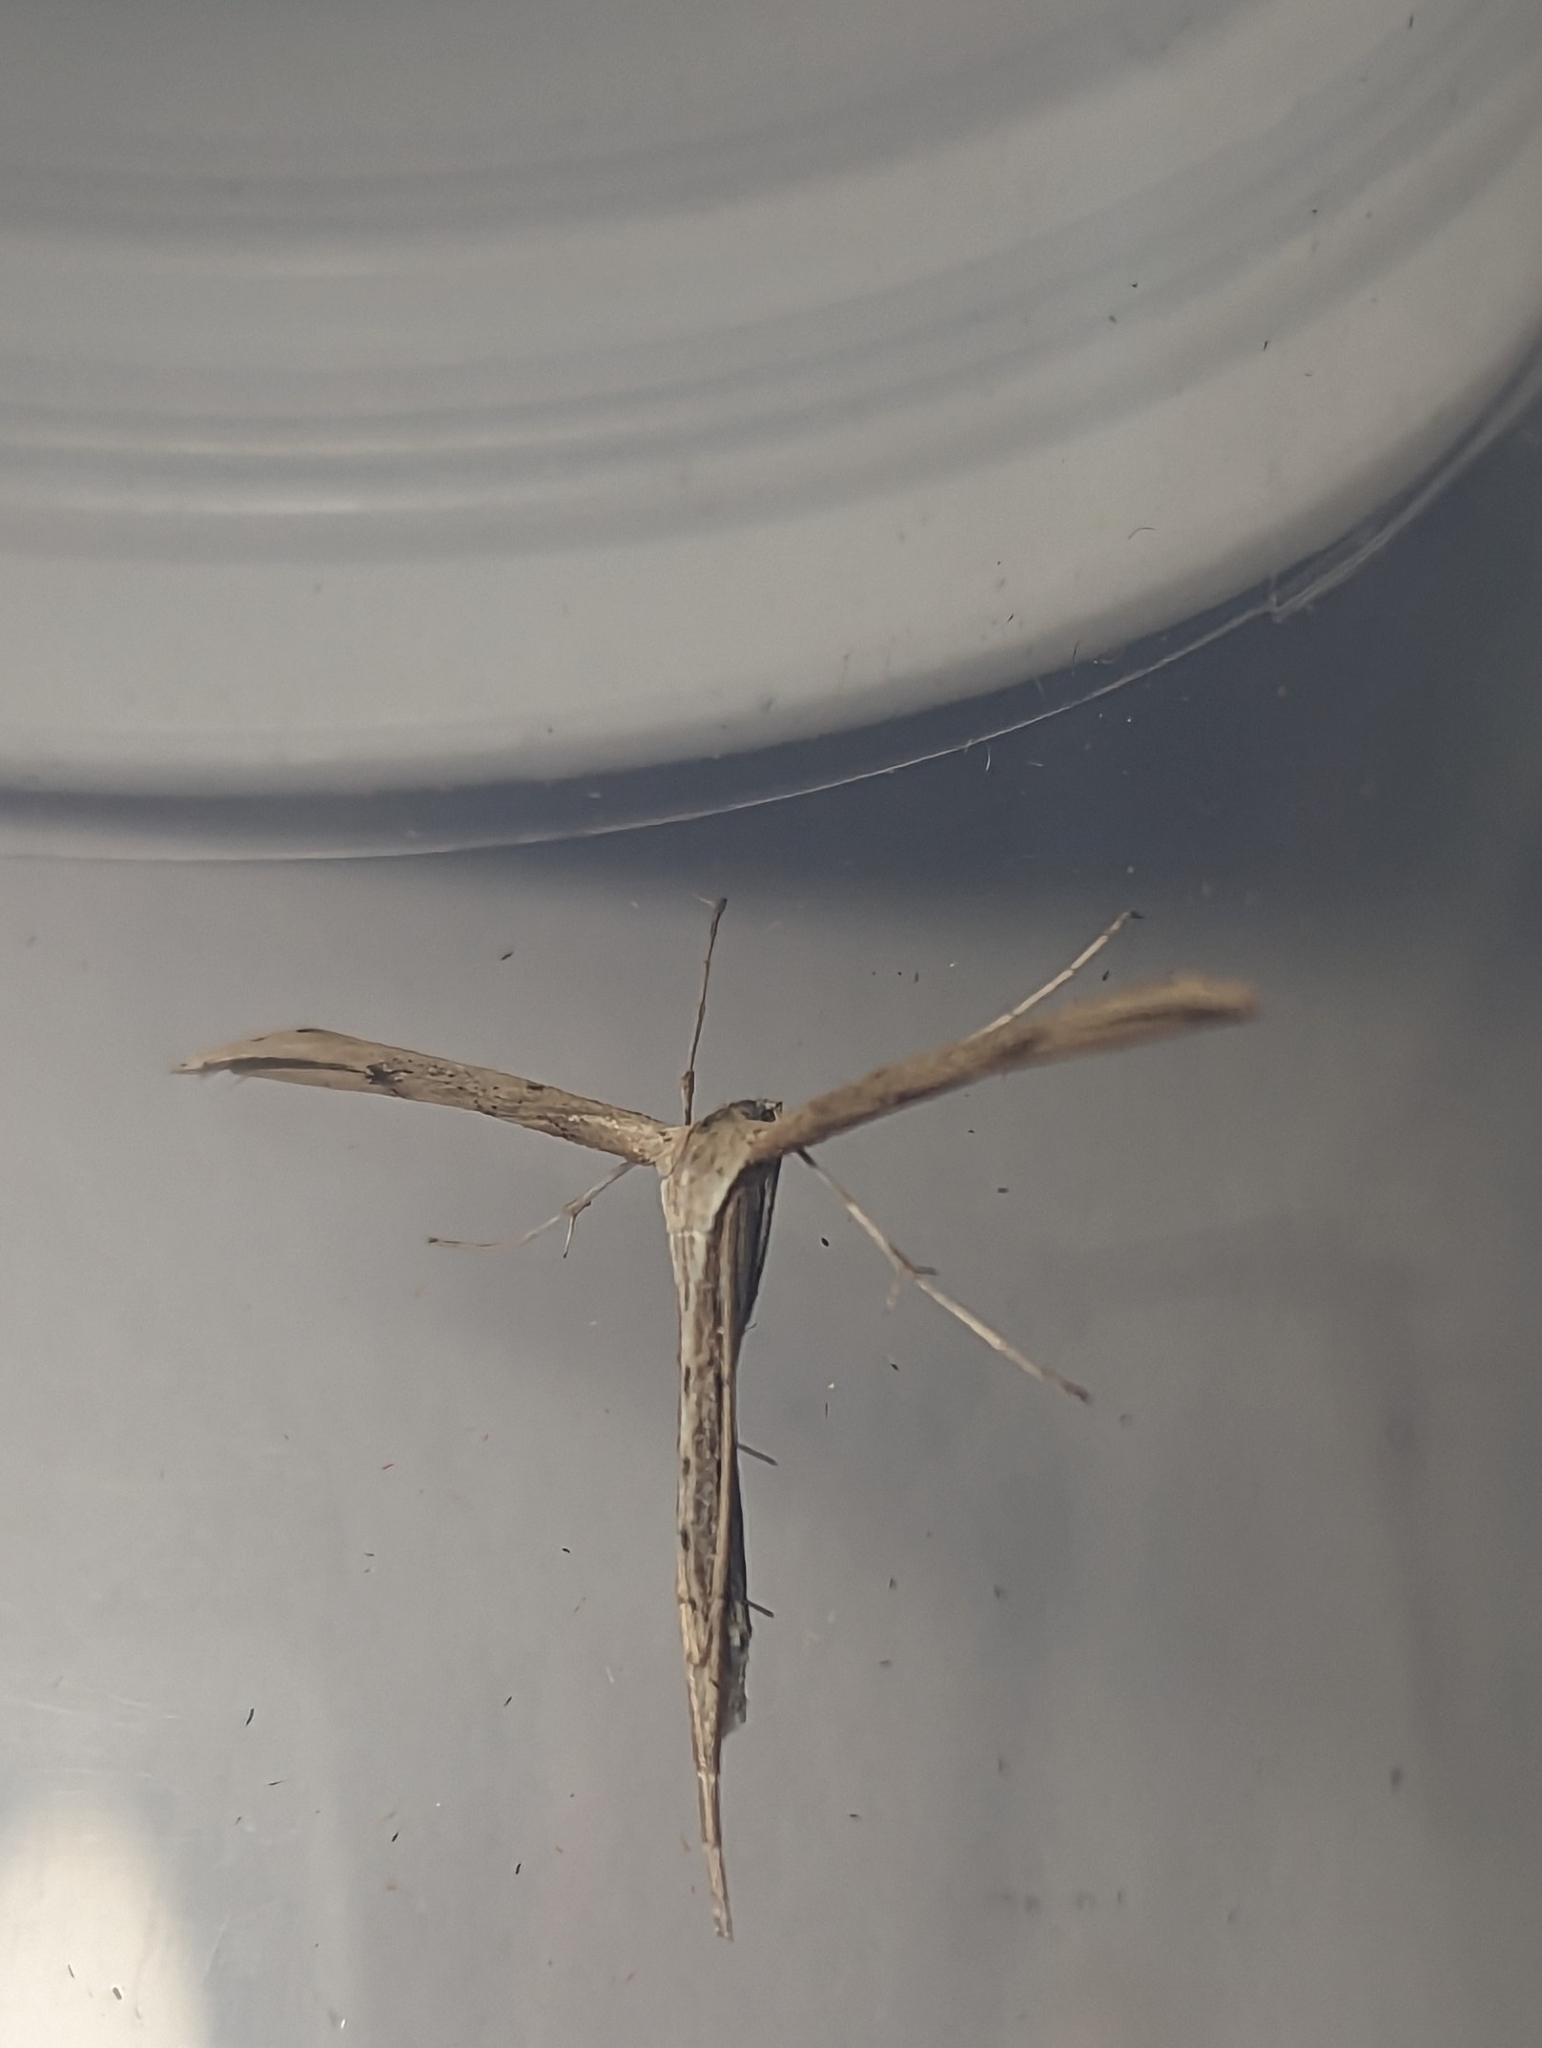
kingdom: Animalia
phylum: Arthropoda
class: Insecta
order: Lepidoptera
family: Pterophoridae
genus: Emmelina
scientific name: Emmelina monodactyla
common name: Common plume
